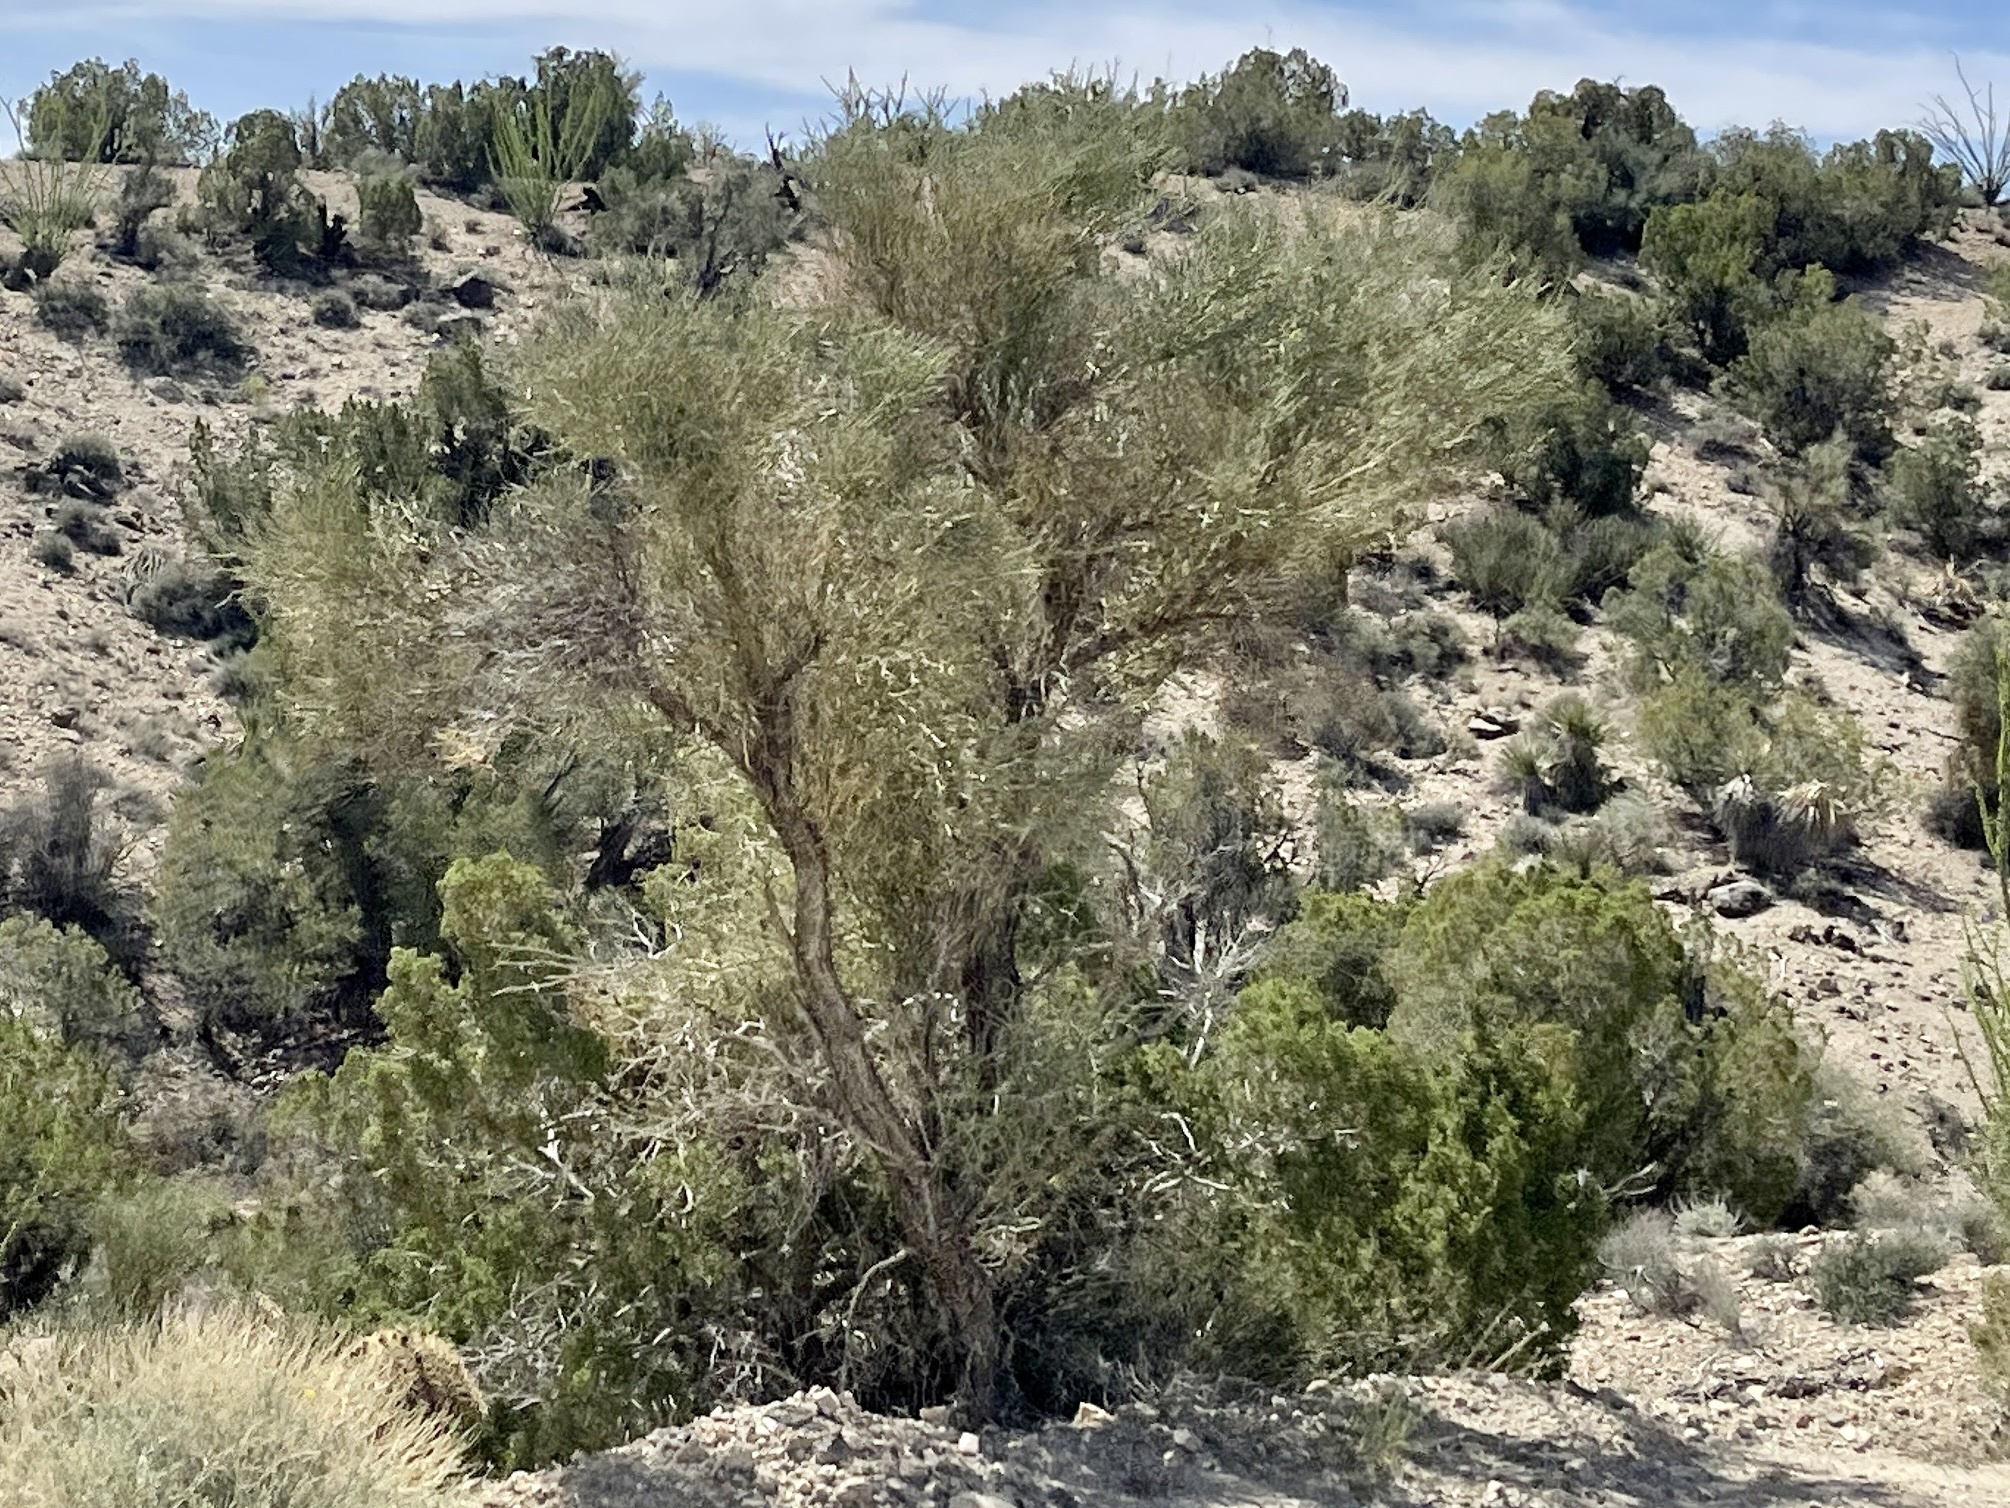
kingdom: Plantae
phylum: Tracheophyta
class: Magnoliopsida
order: Celastrales
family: Celastraceae
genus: Canotia
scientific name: Canotia holacantha
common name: Crucifixion thorns
